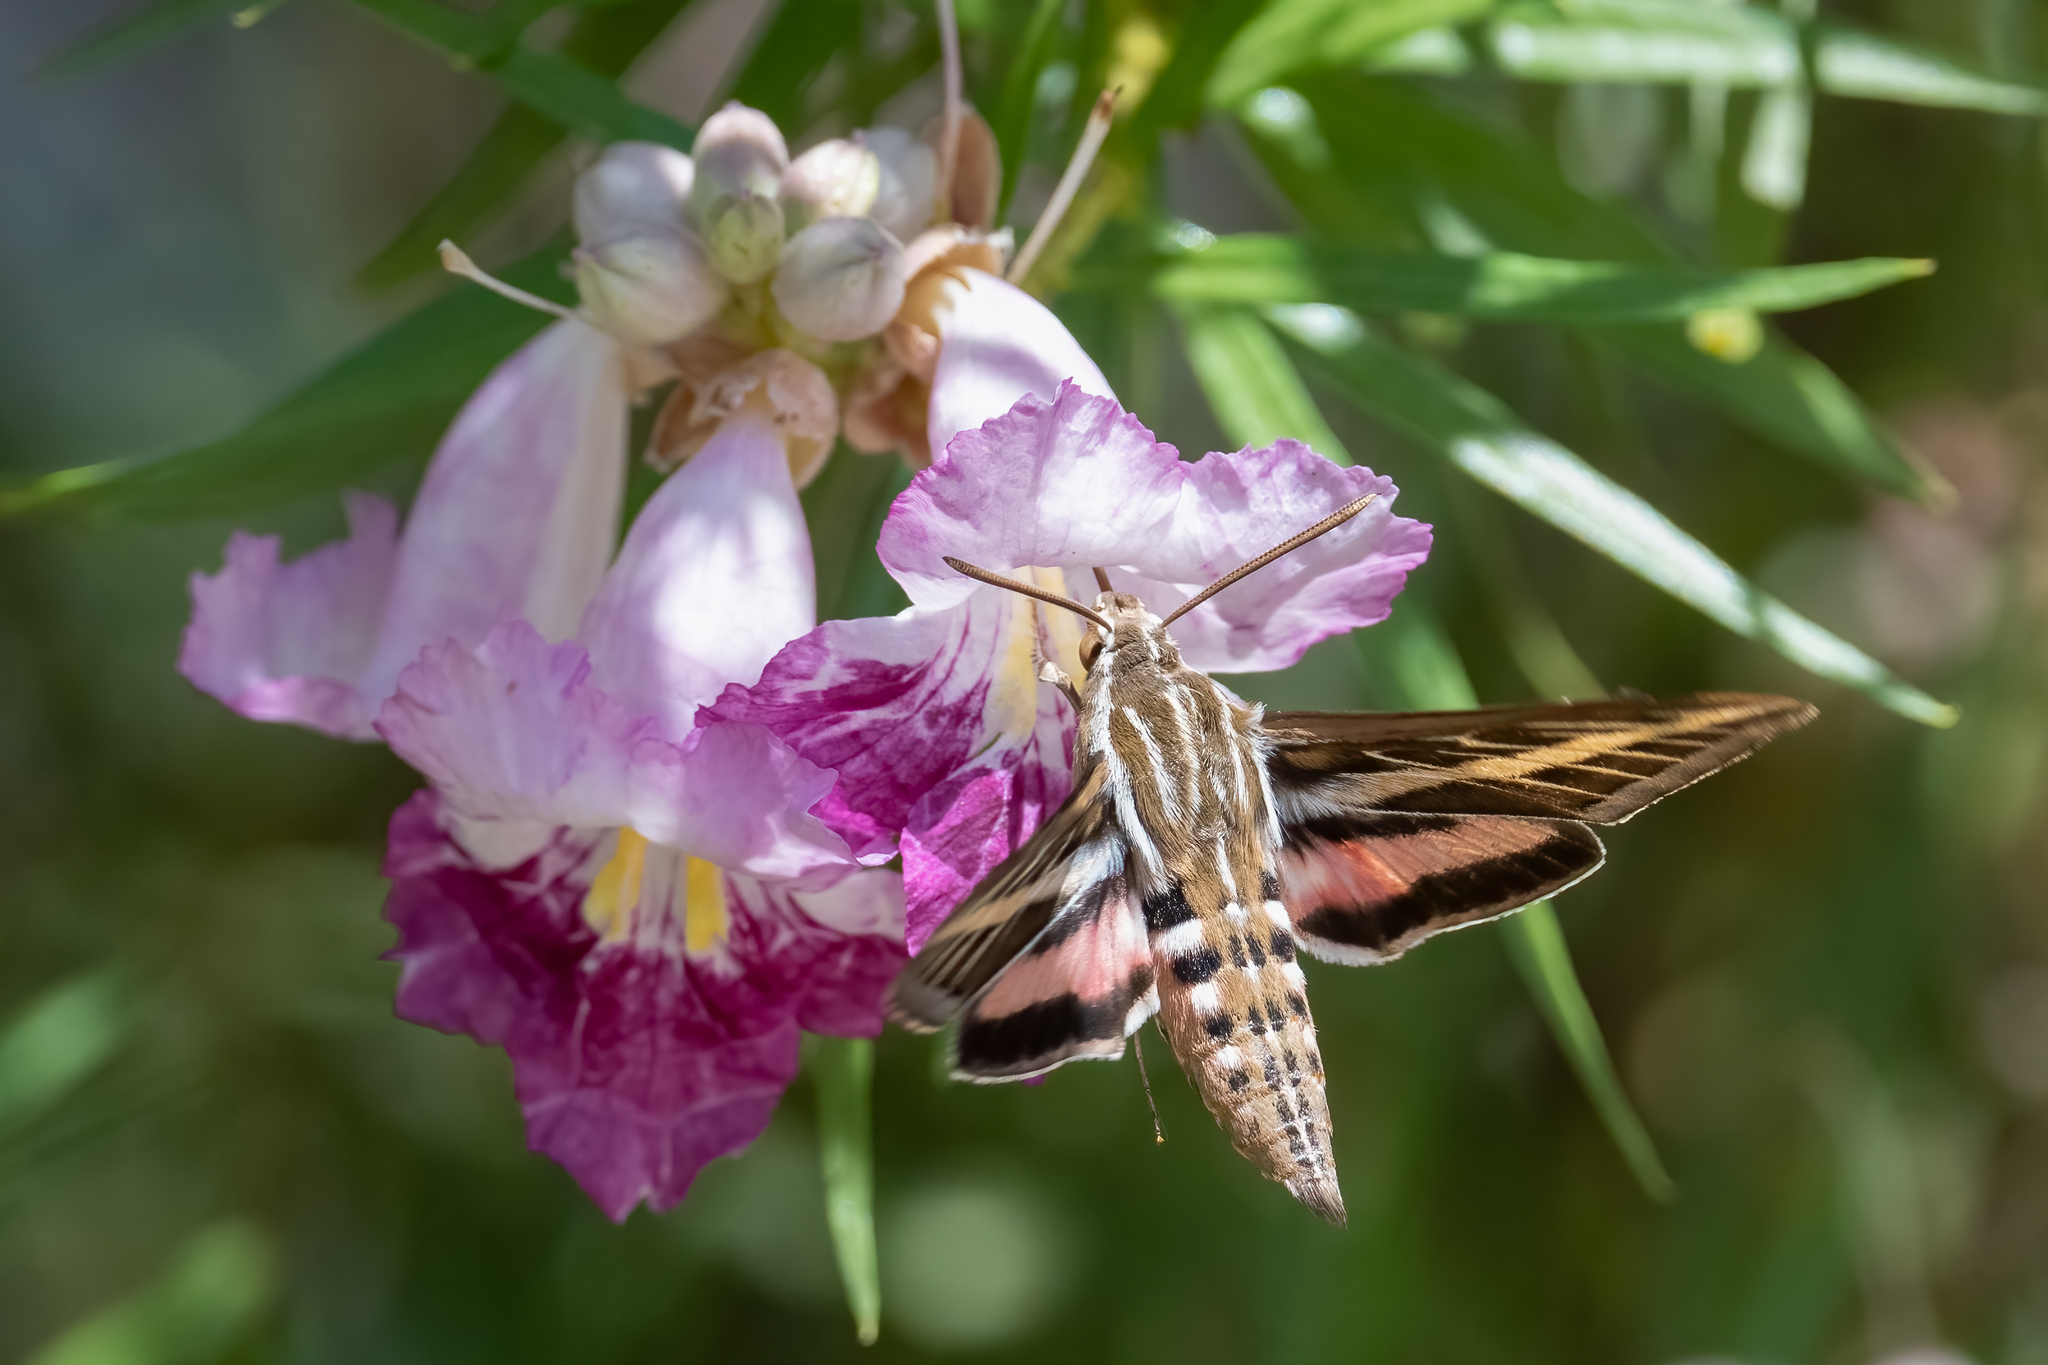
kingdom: Animalia
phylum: Arthropoda
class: Insecta
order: Lepidoptera
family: Sphingidae
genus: Hyles
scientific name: Hyles lineata
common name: White-lined sphinx
